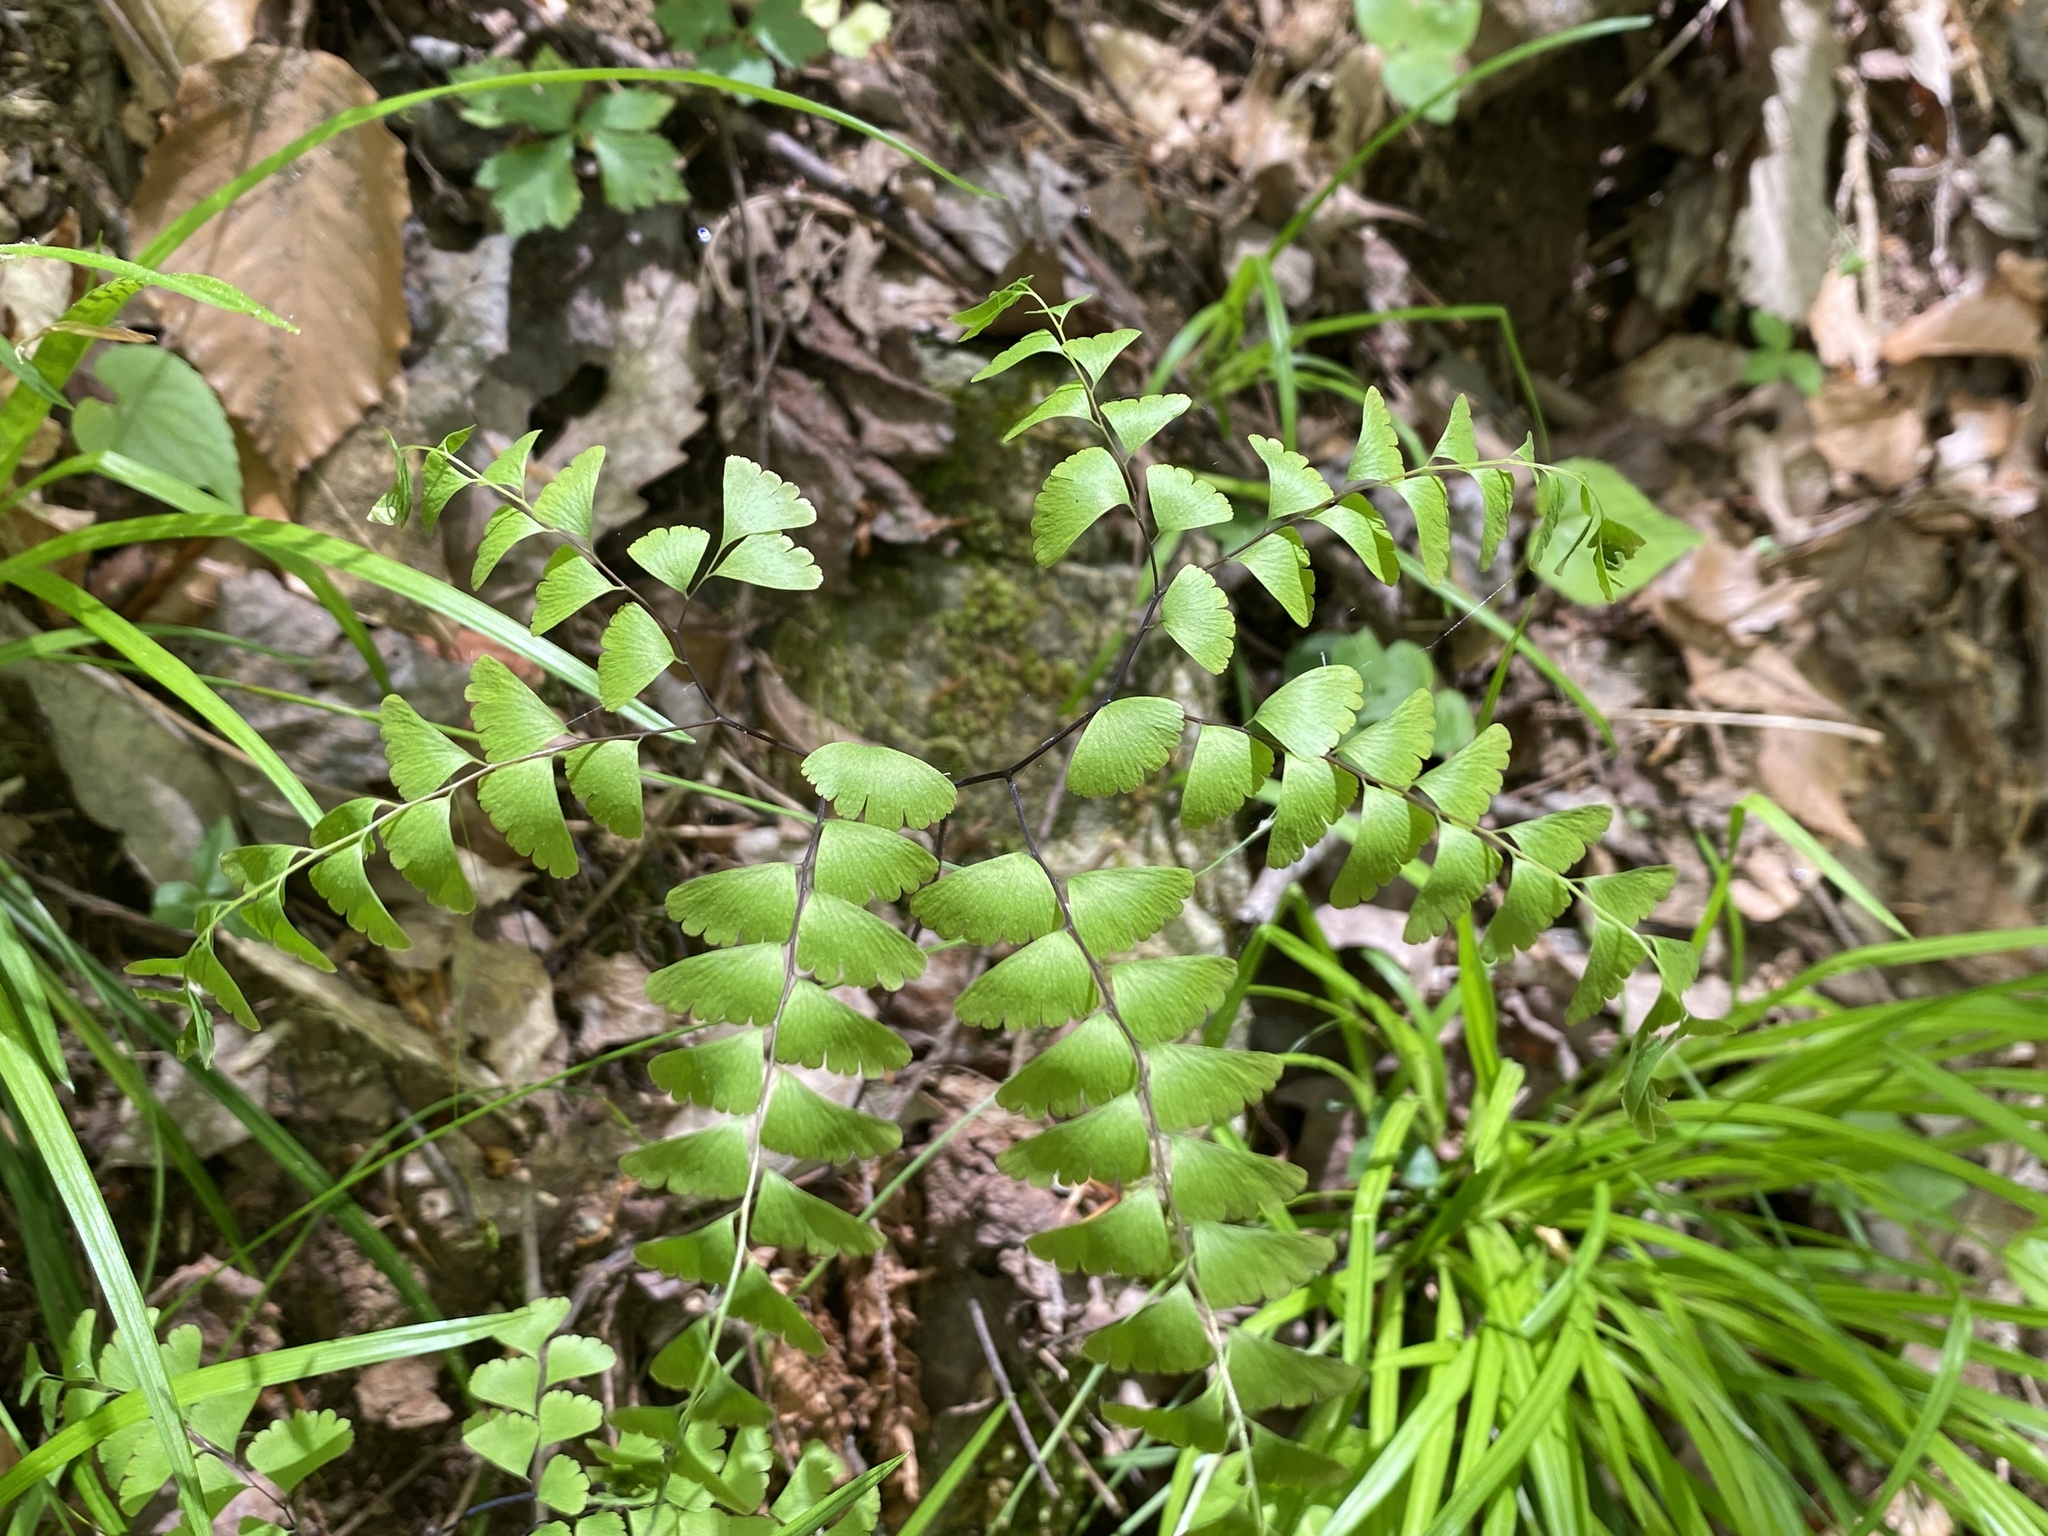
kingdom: Plantae
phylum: Tracheophyta
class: Polypodiopsida
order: Polypodiales
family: Pteridaceae
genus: Adiantum
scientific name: Adiantum pedatum
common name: Five-finger fern
